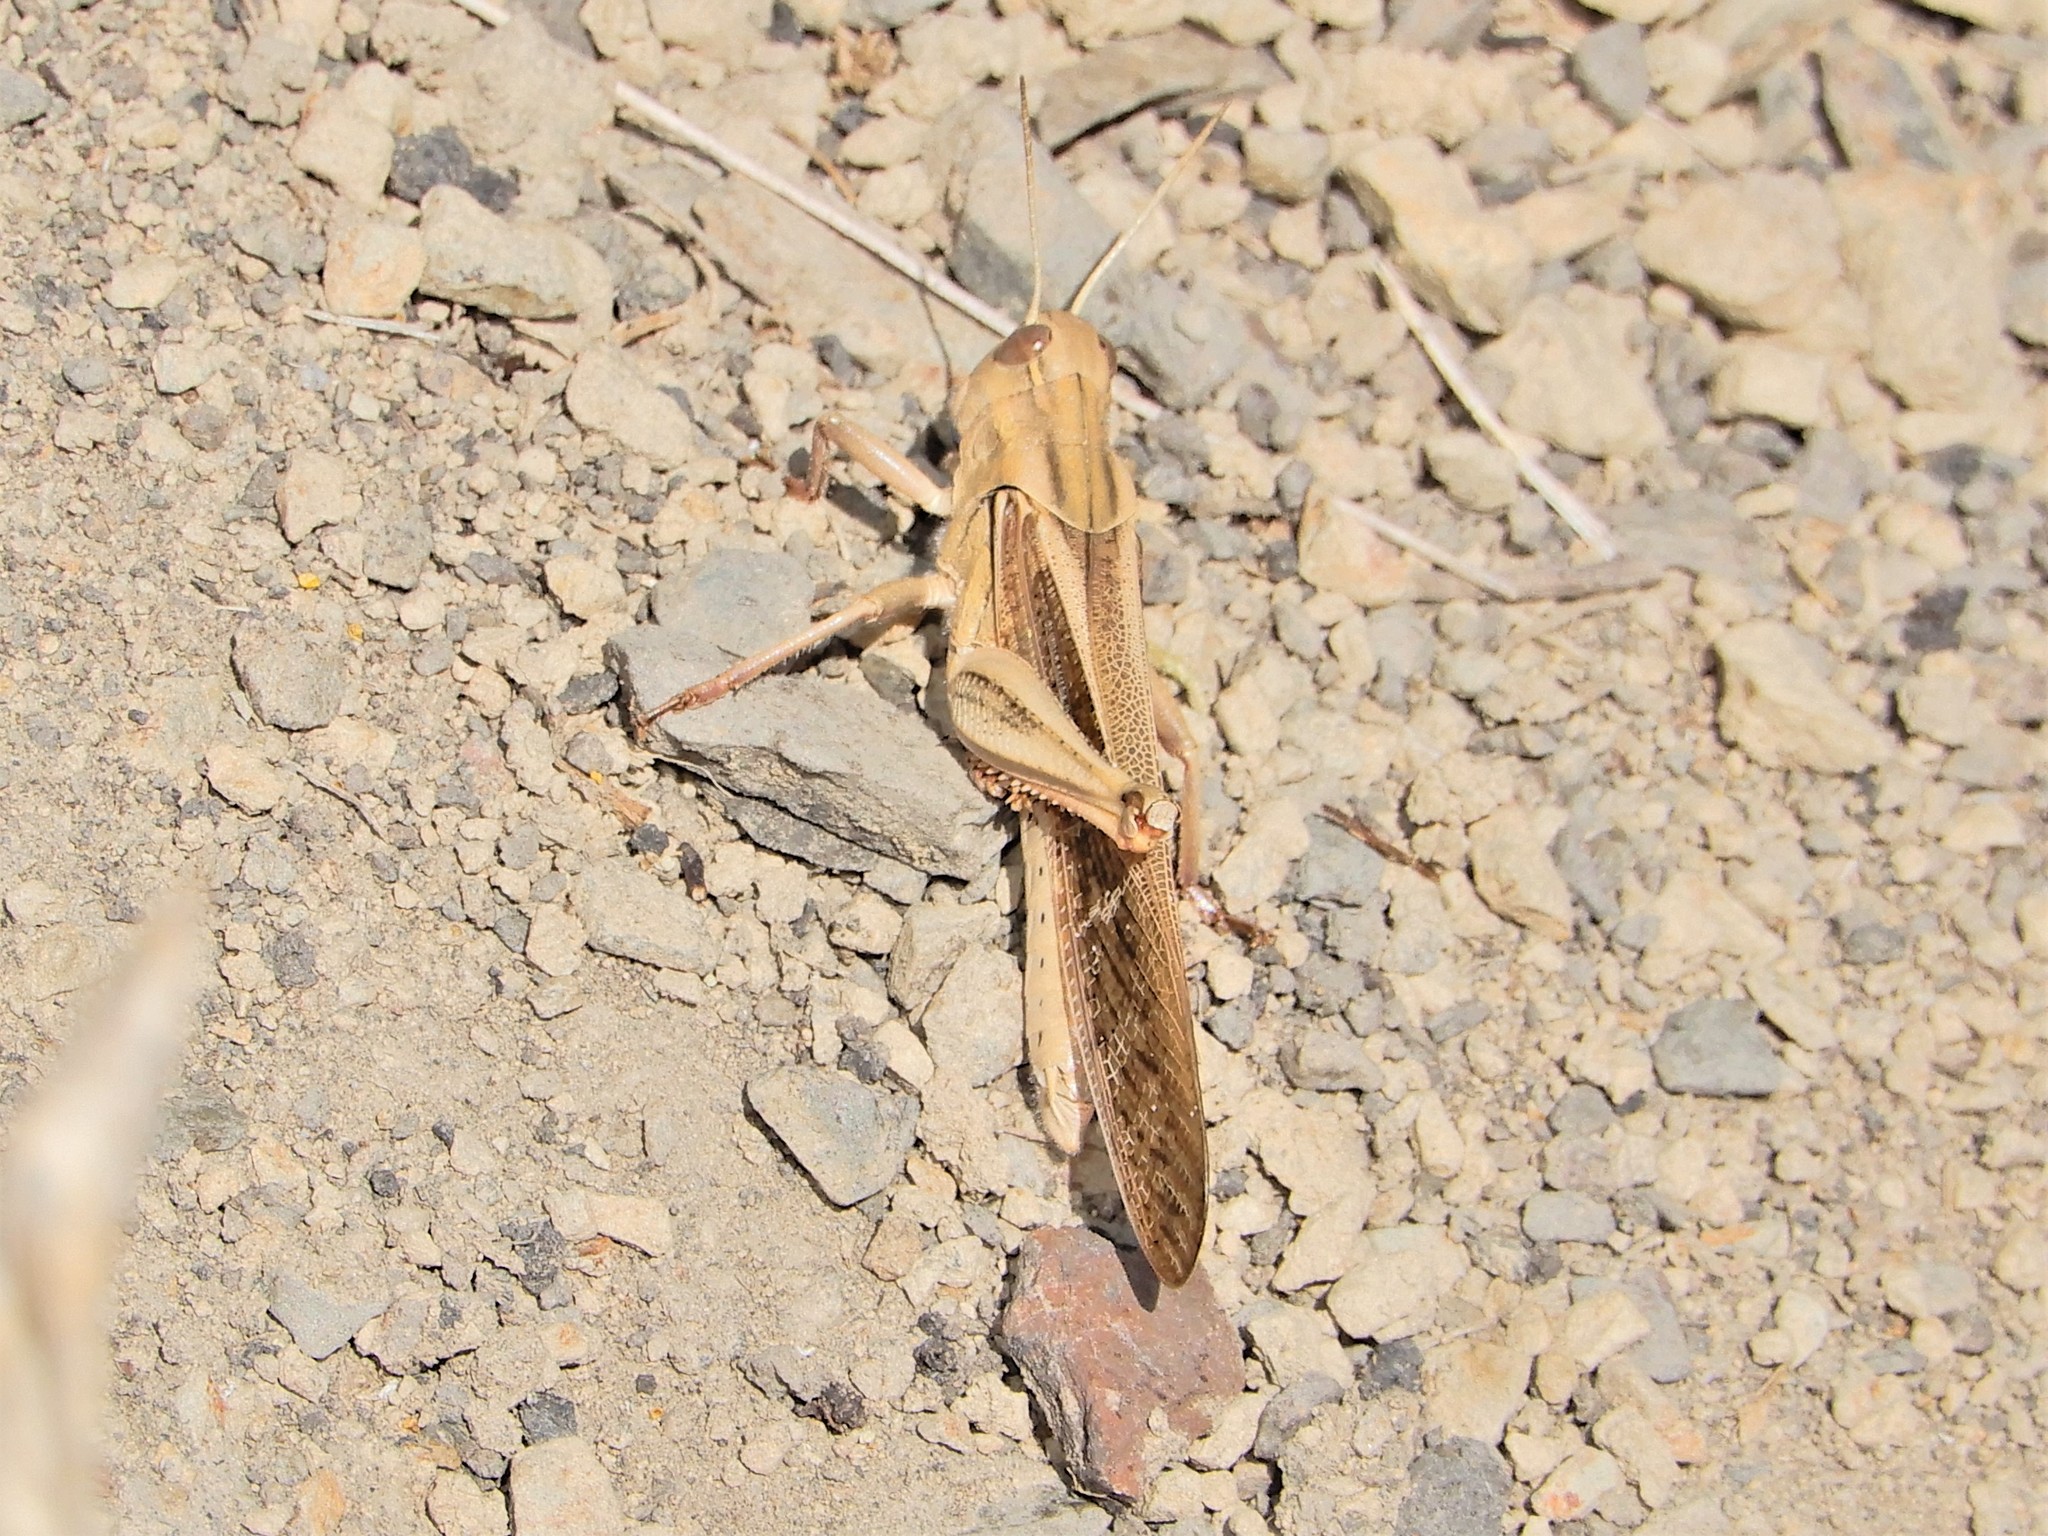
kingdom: Animalia
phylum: Arthropoda
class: Insecta
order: Orthoptera
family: Acrididae
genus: Locusta
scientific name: Locusta migratoria
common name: Migratory locust
